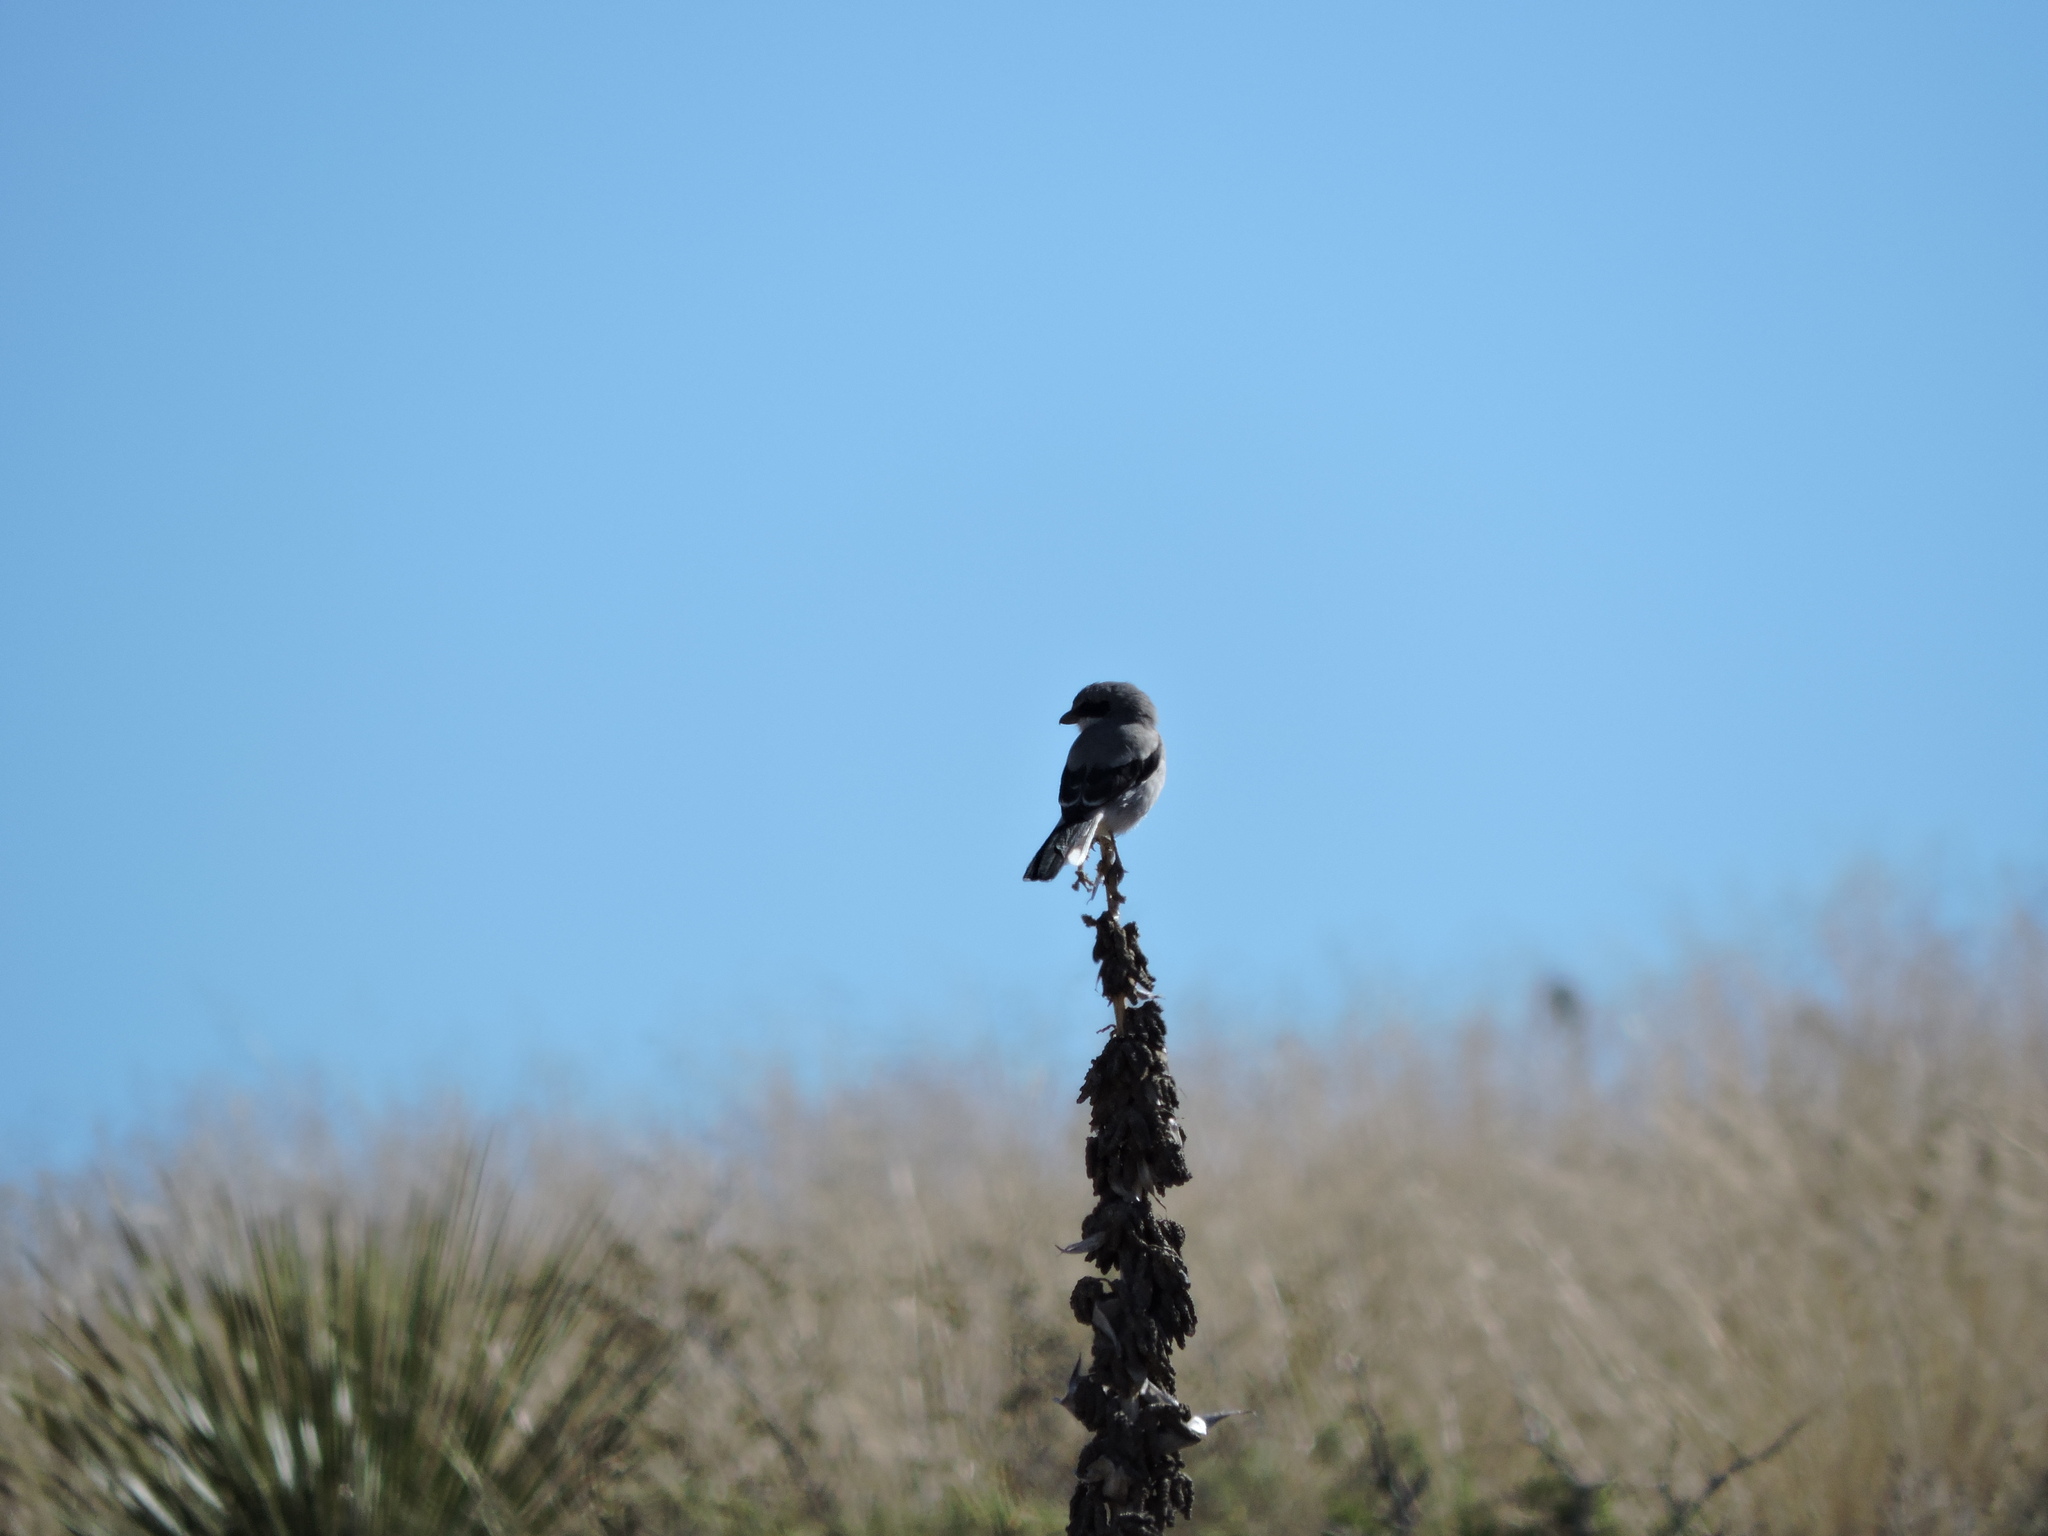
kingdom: Animalia
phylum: Chordata
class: Aves
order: Passeriformes
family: Laniidae
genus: Lanius
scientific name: Lanius ludovicianus
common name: Loggerhead shrike
